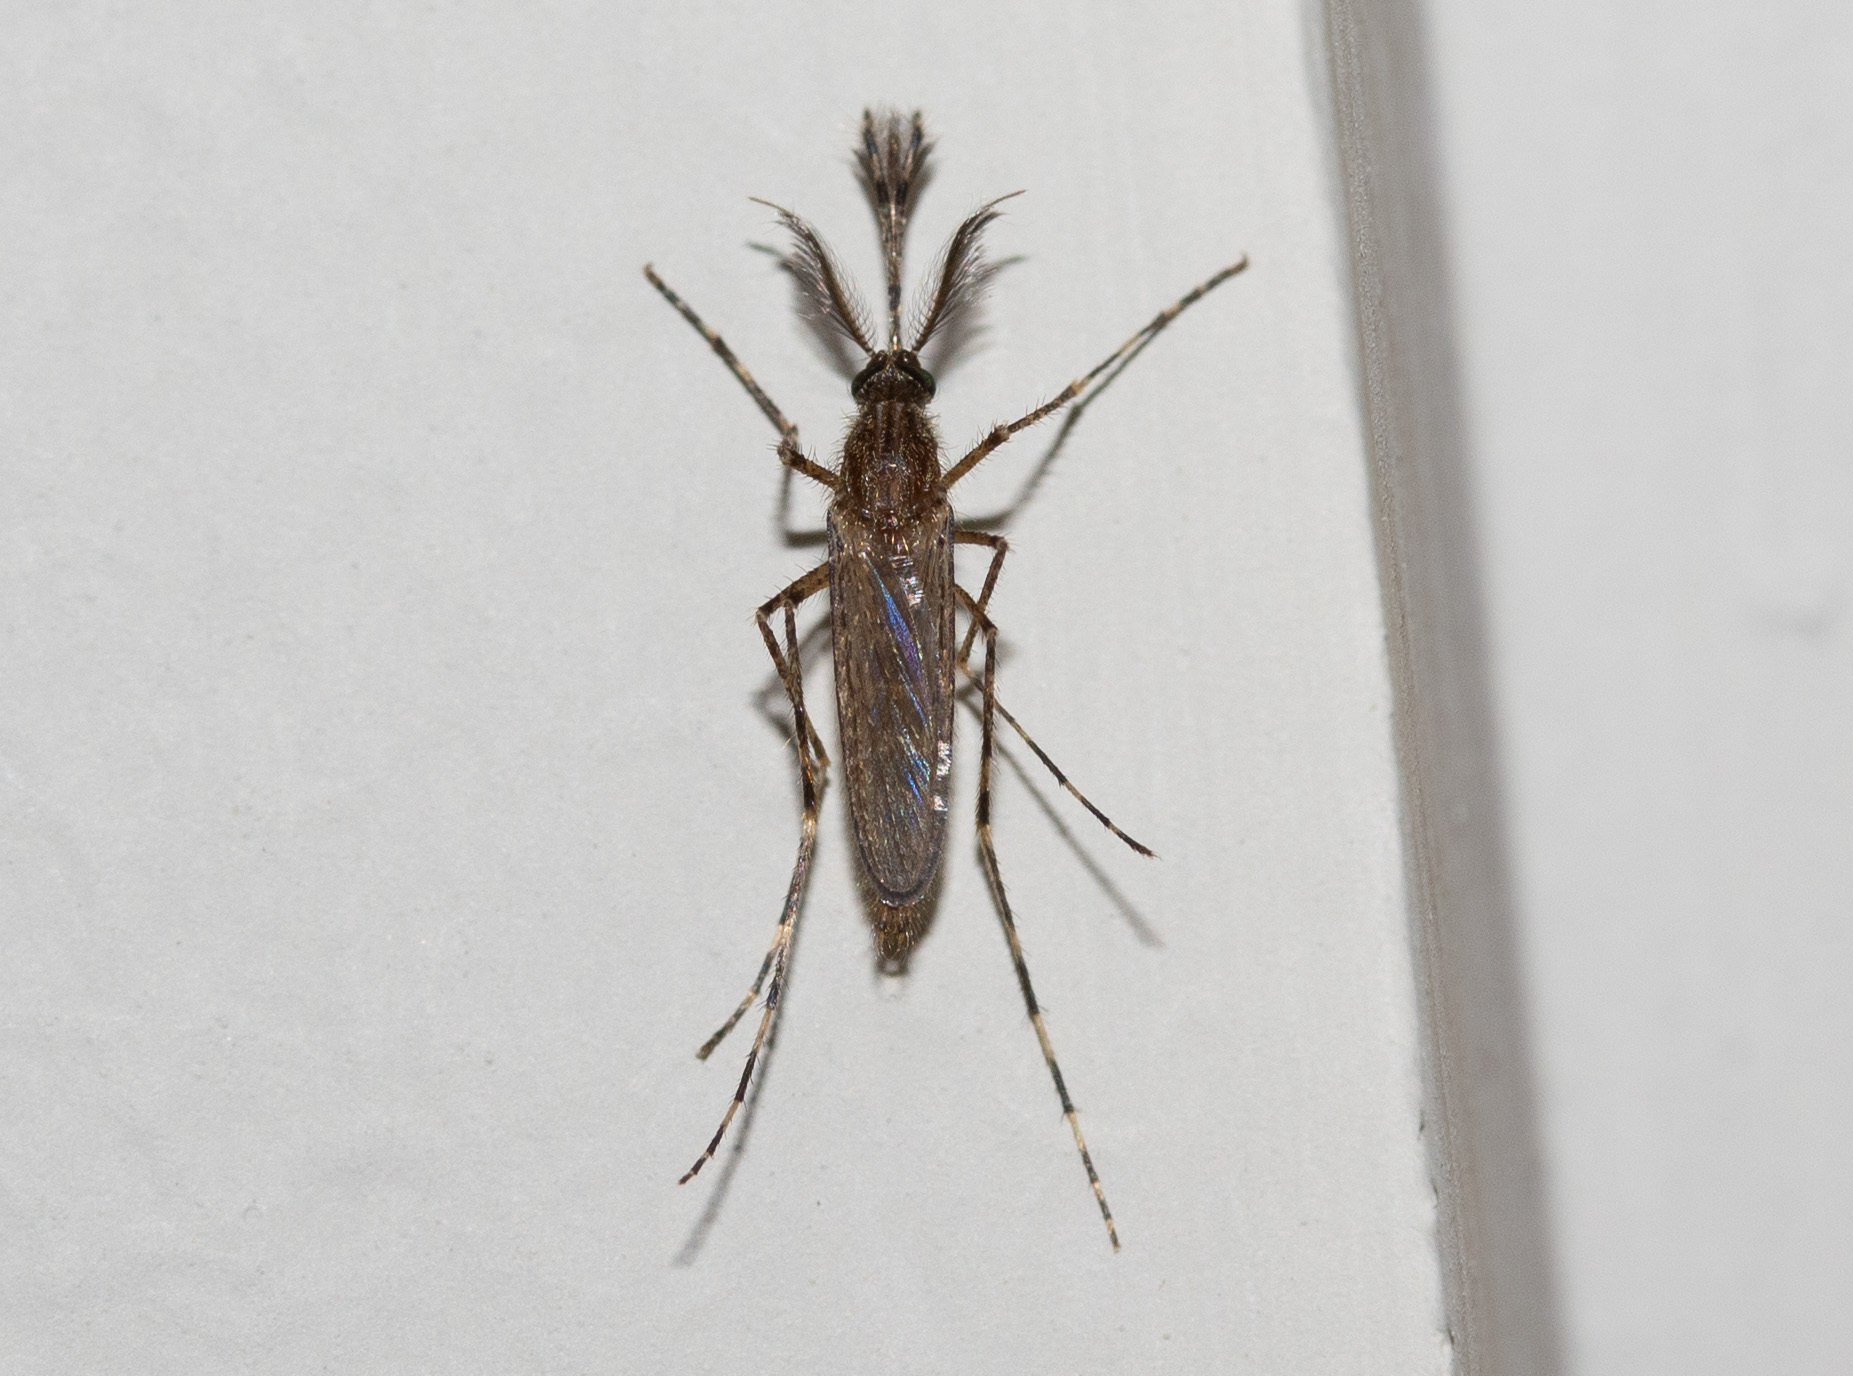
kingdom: Animalia
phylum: Arthropoda
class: Insecta
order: Diptera
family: Culicidae
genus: Coquillettidia
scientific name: Coquillettidia perturbans
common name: Cattail mosquito
